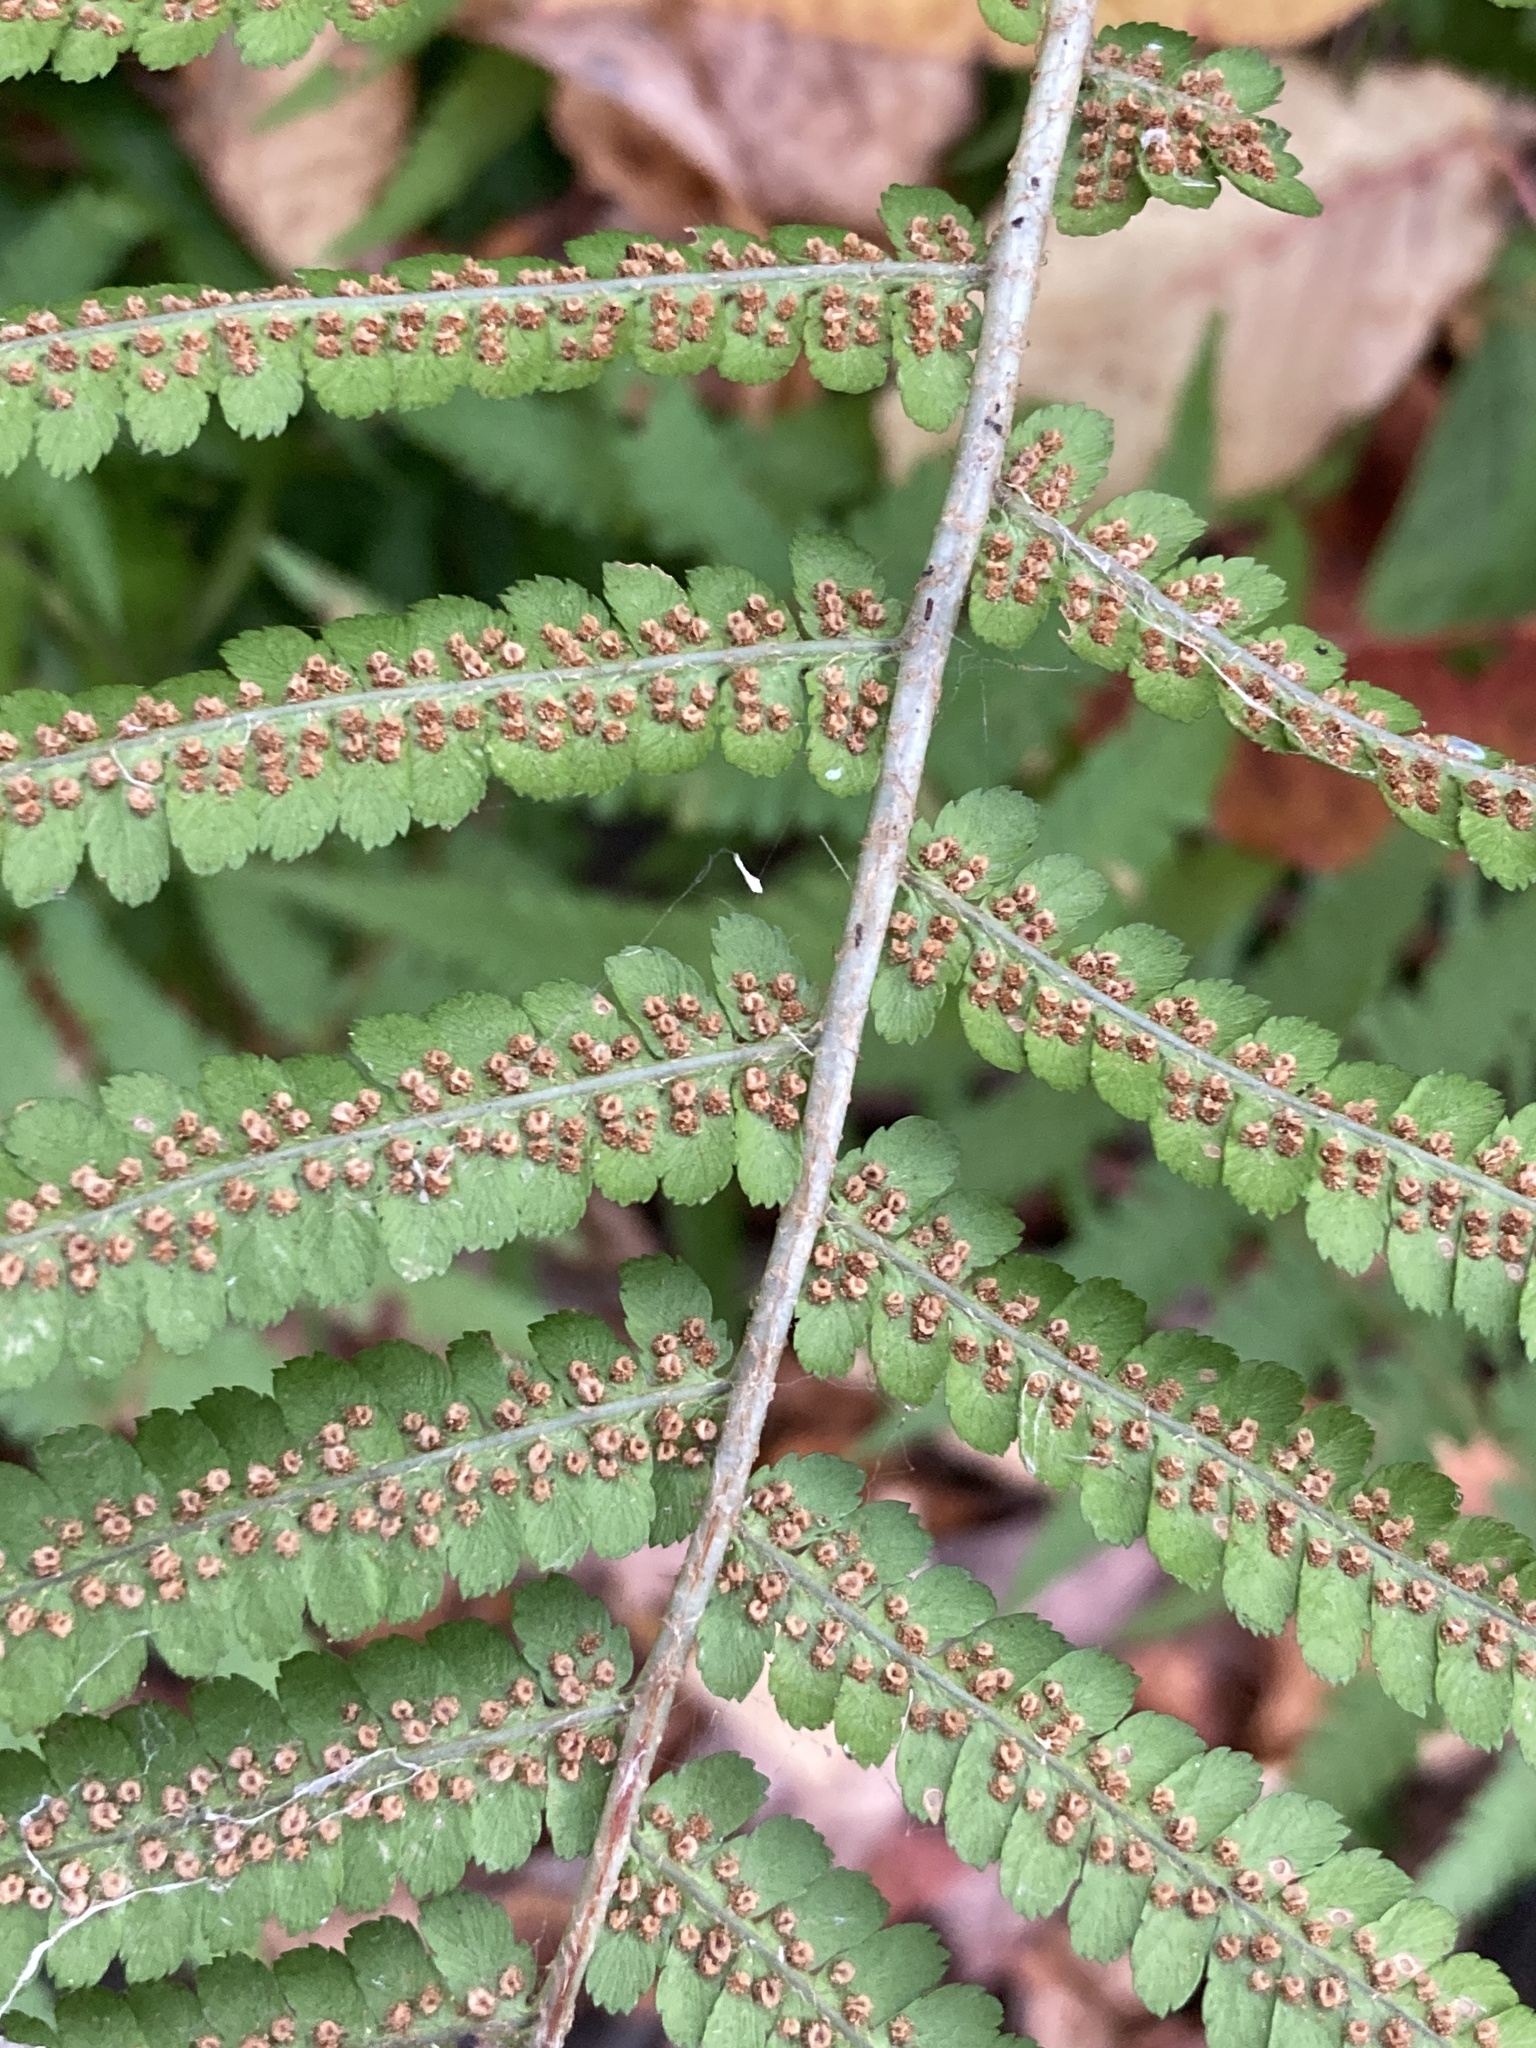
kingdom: Plantae
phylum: Tracheophyta
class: Polypodiopsida
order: Polypodiales
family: Dryopteridaceae
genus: Dryopteris
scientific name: Dryopteris filix-mas
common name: Male fern
